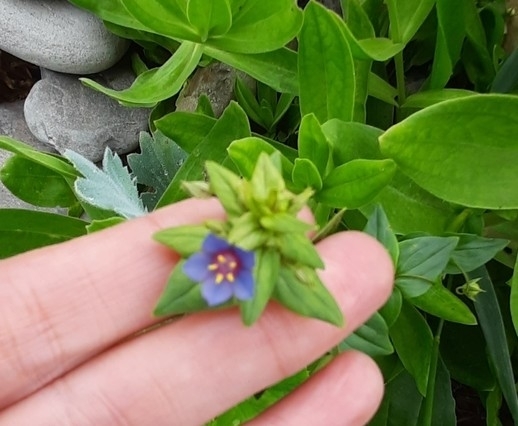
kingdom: Plantae
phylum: Tracheophyta
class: Magnoliopsida
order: Ericales
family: Primulaceae
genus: Lysimachia
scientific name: Lysimachia foemina
